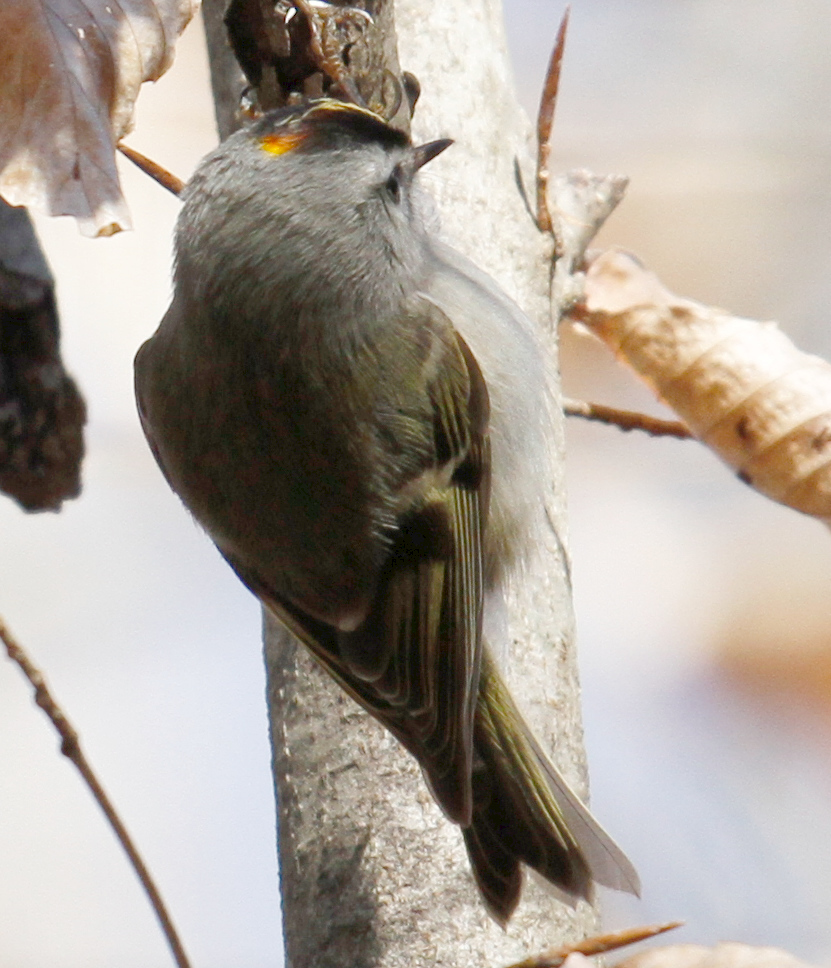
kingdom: Animalia
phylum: Chordata
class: Aves
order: Passeriformes
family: Regulidae
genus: Regulus
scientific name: Regulus satrapa
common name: Golden-crowned kinglet
